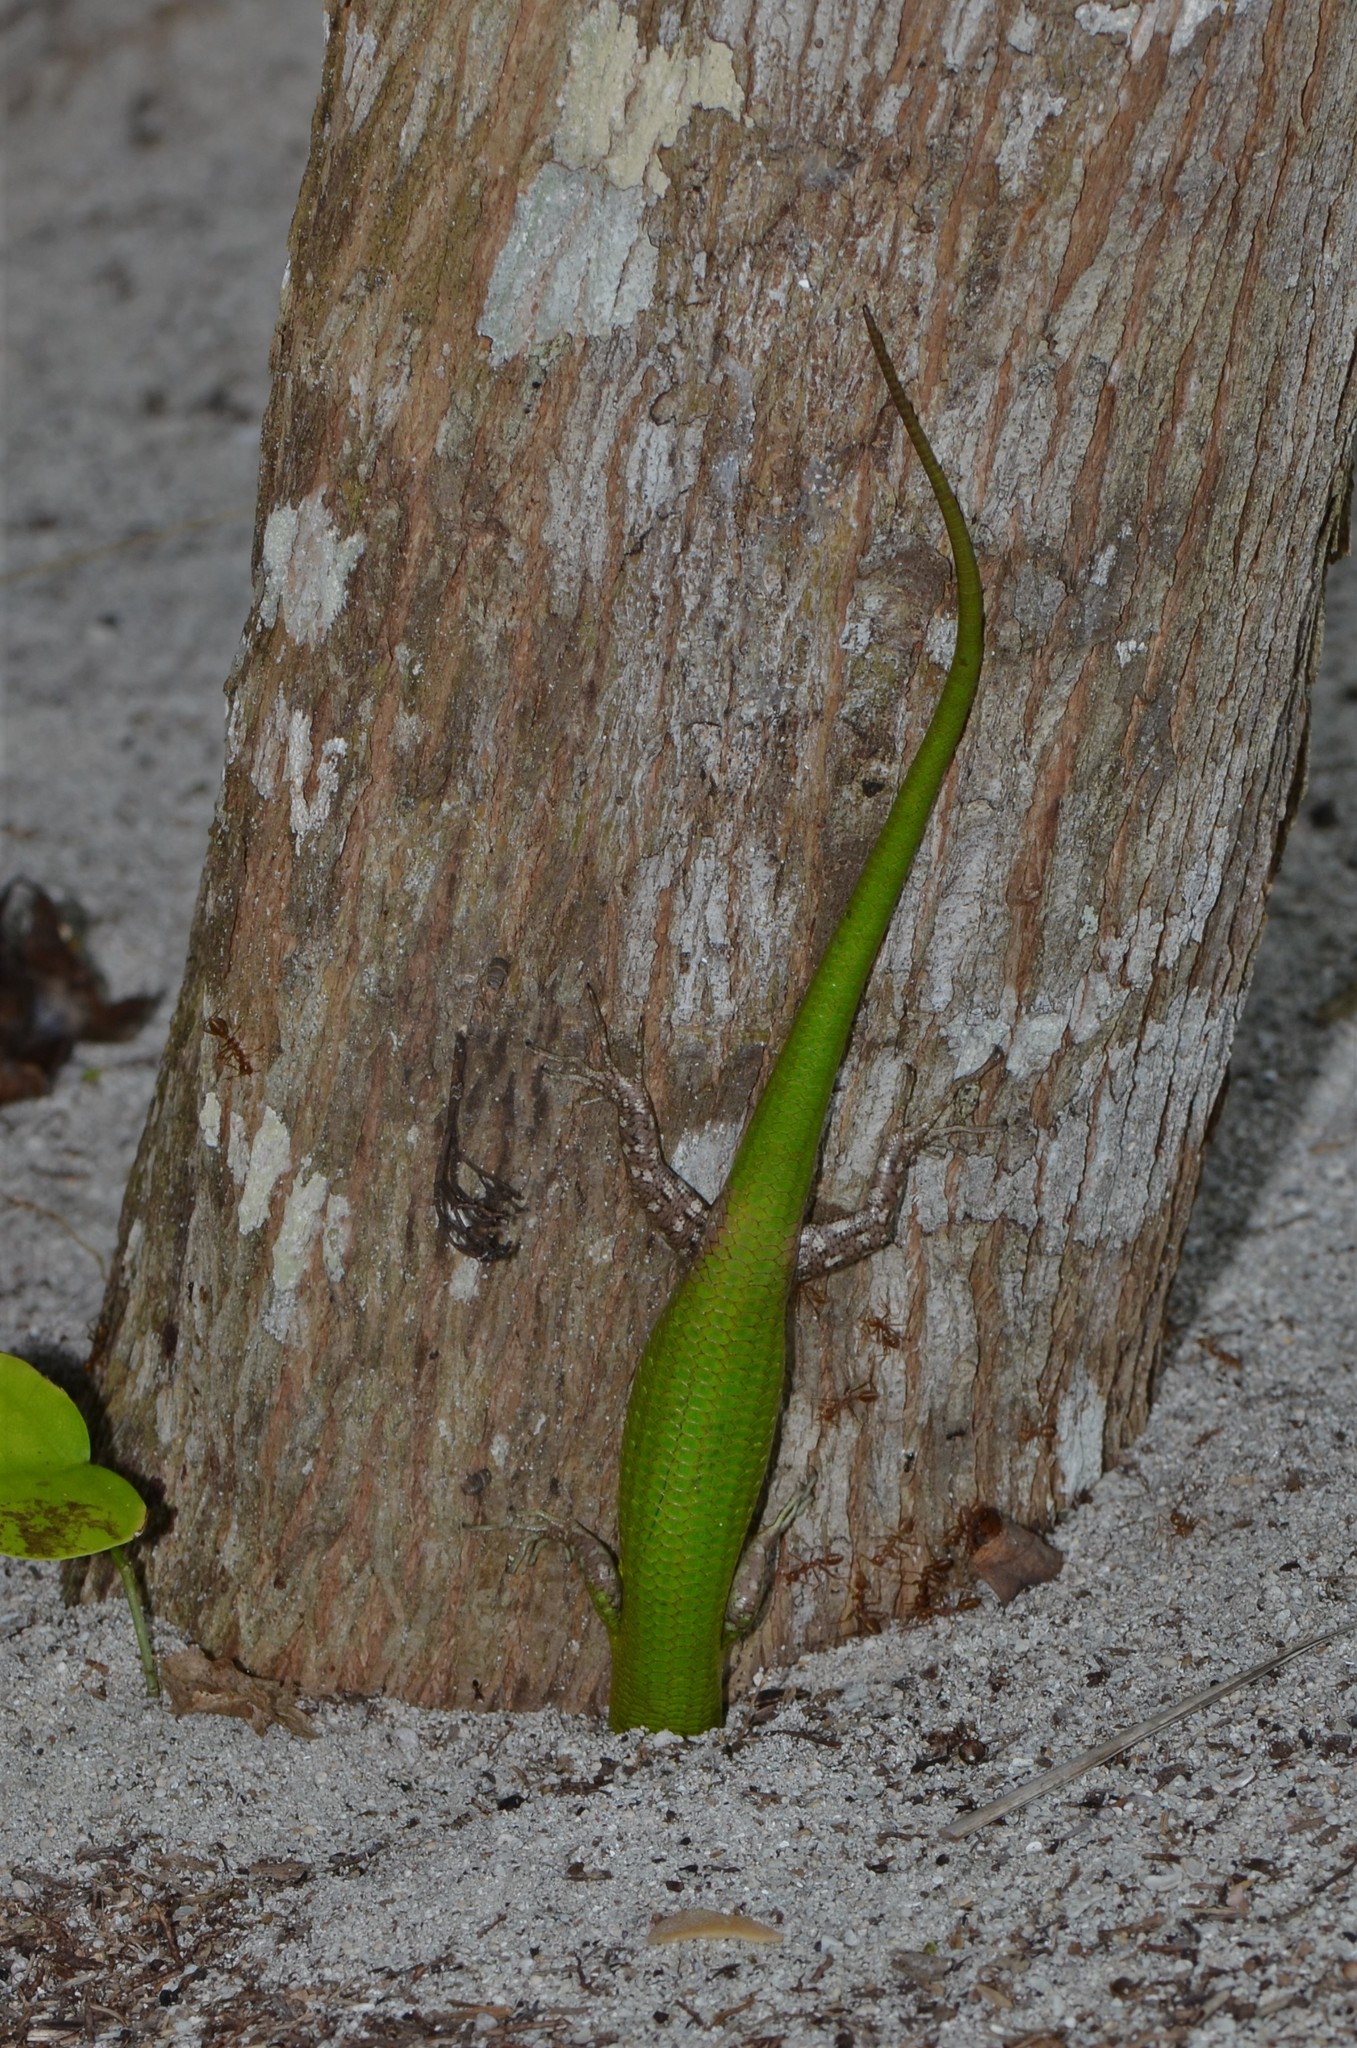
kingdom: Animalia
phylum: Chordata
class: Squamata
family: Scincidae
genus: Lamprolepis
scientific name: Lamprolepis smaragdina
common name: Emerald skink
